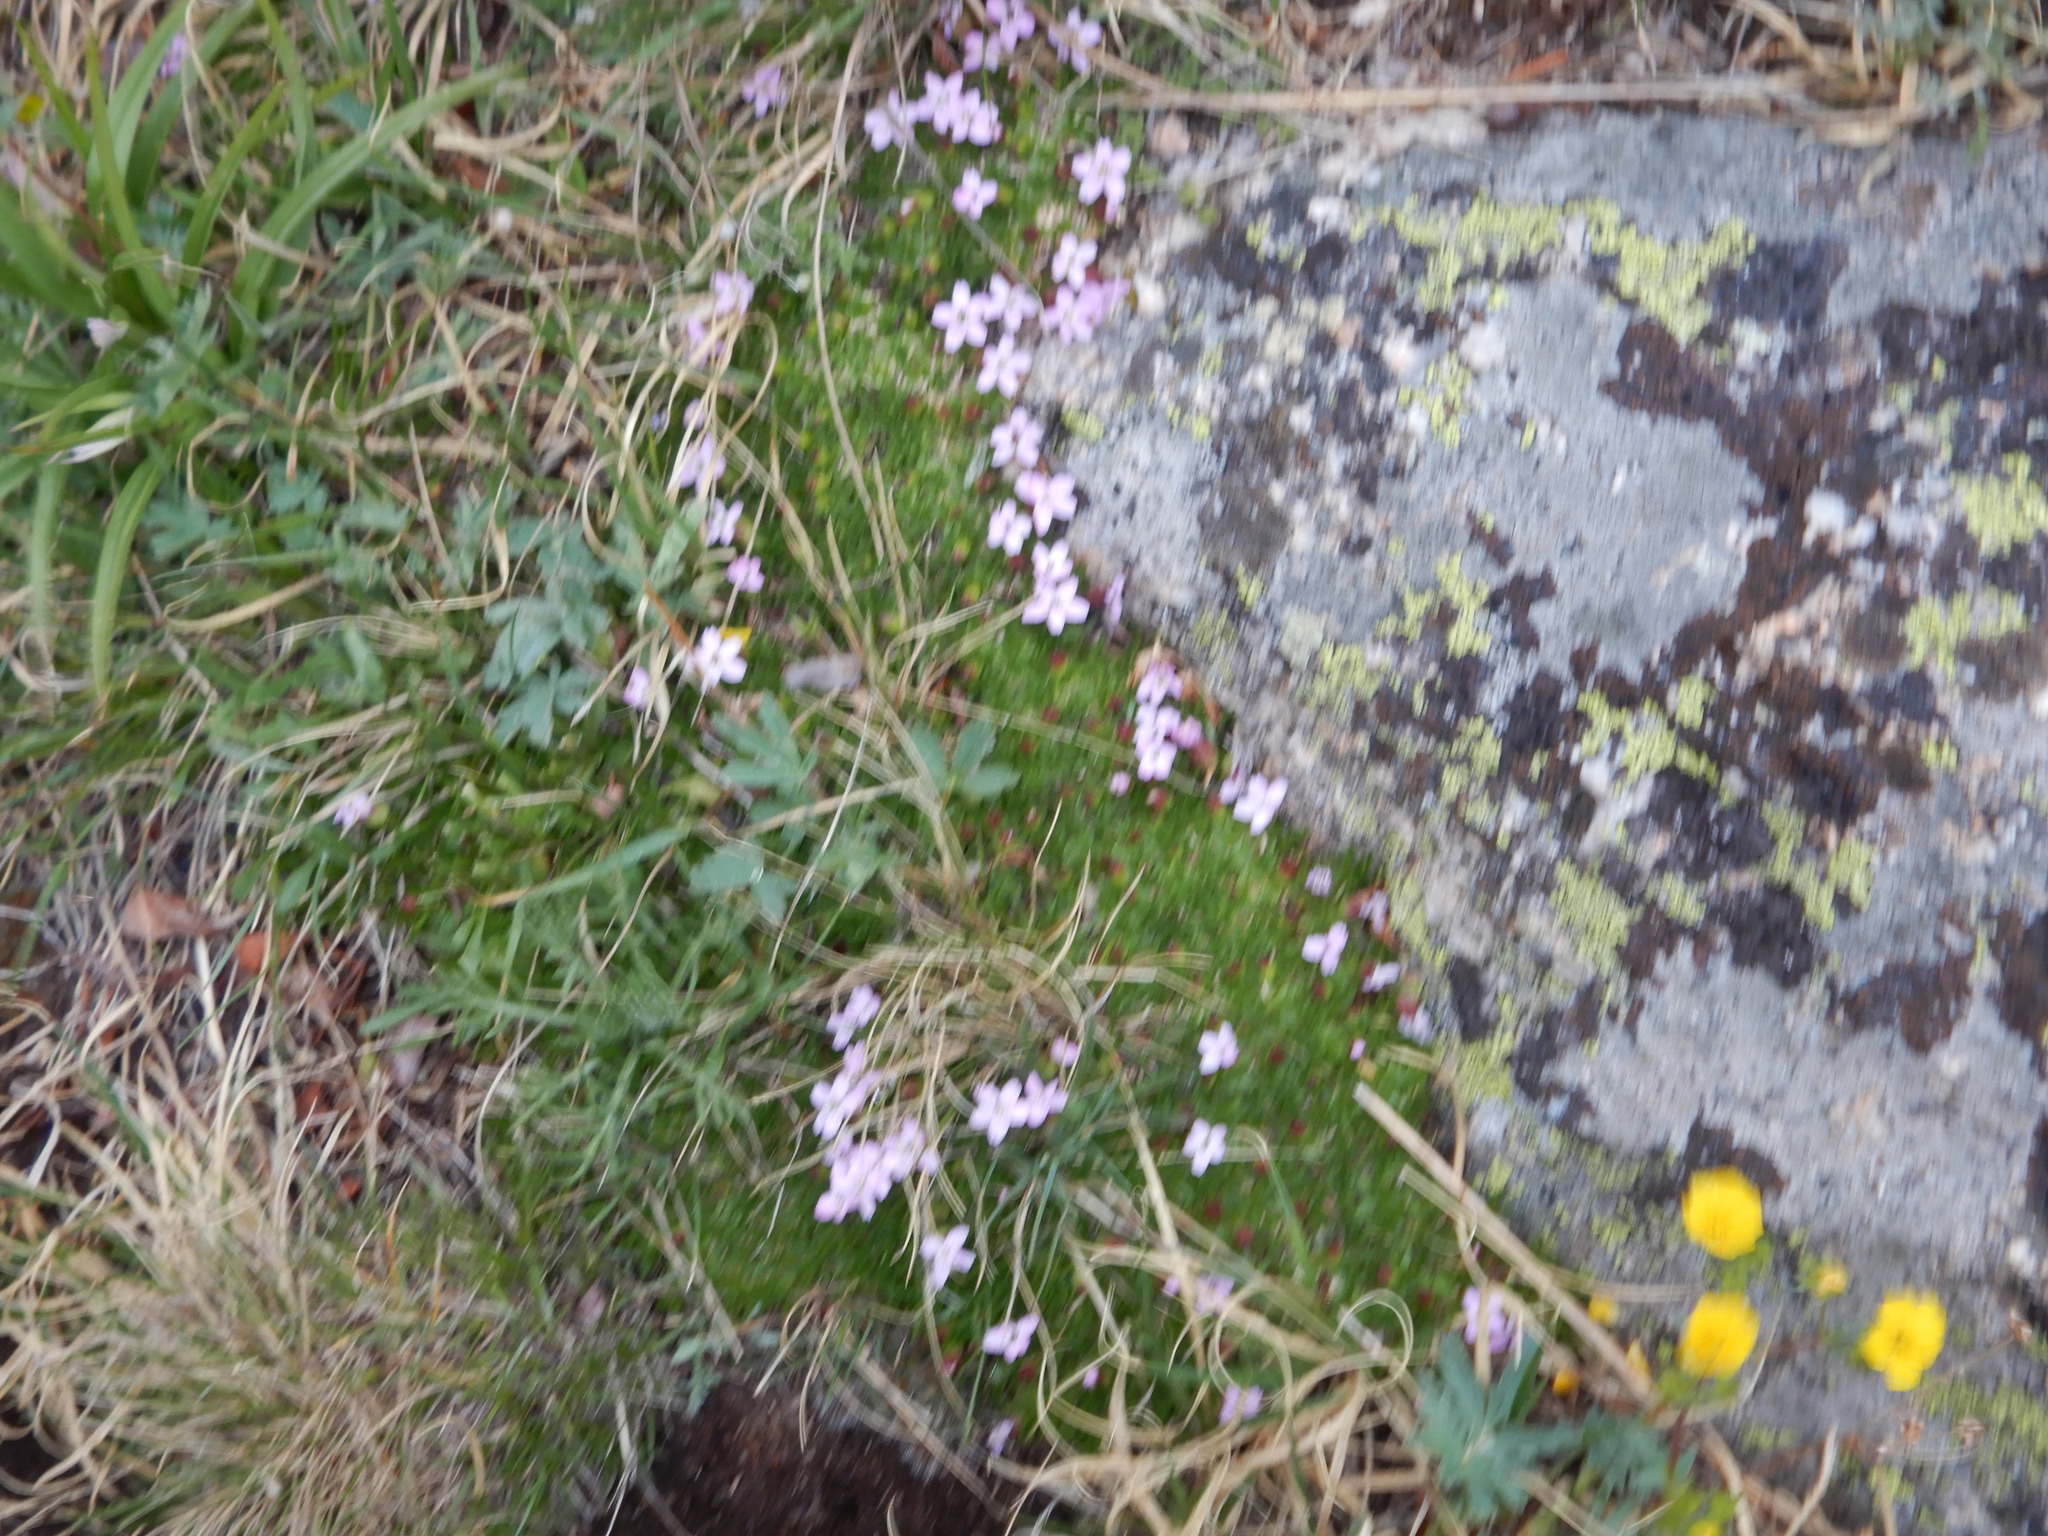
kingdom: Plantae
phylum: Tracheophyta
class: Magnoliopsida
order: Caryophyllales
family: Caryophyllaceae
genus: Silene
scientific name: Silene acaulis
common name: Moss campion
